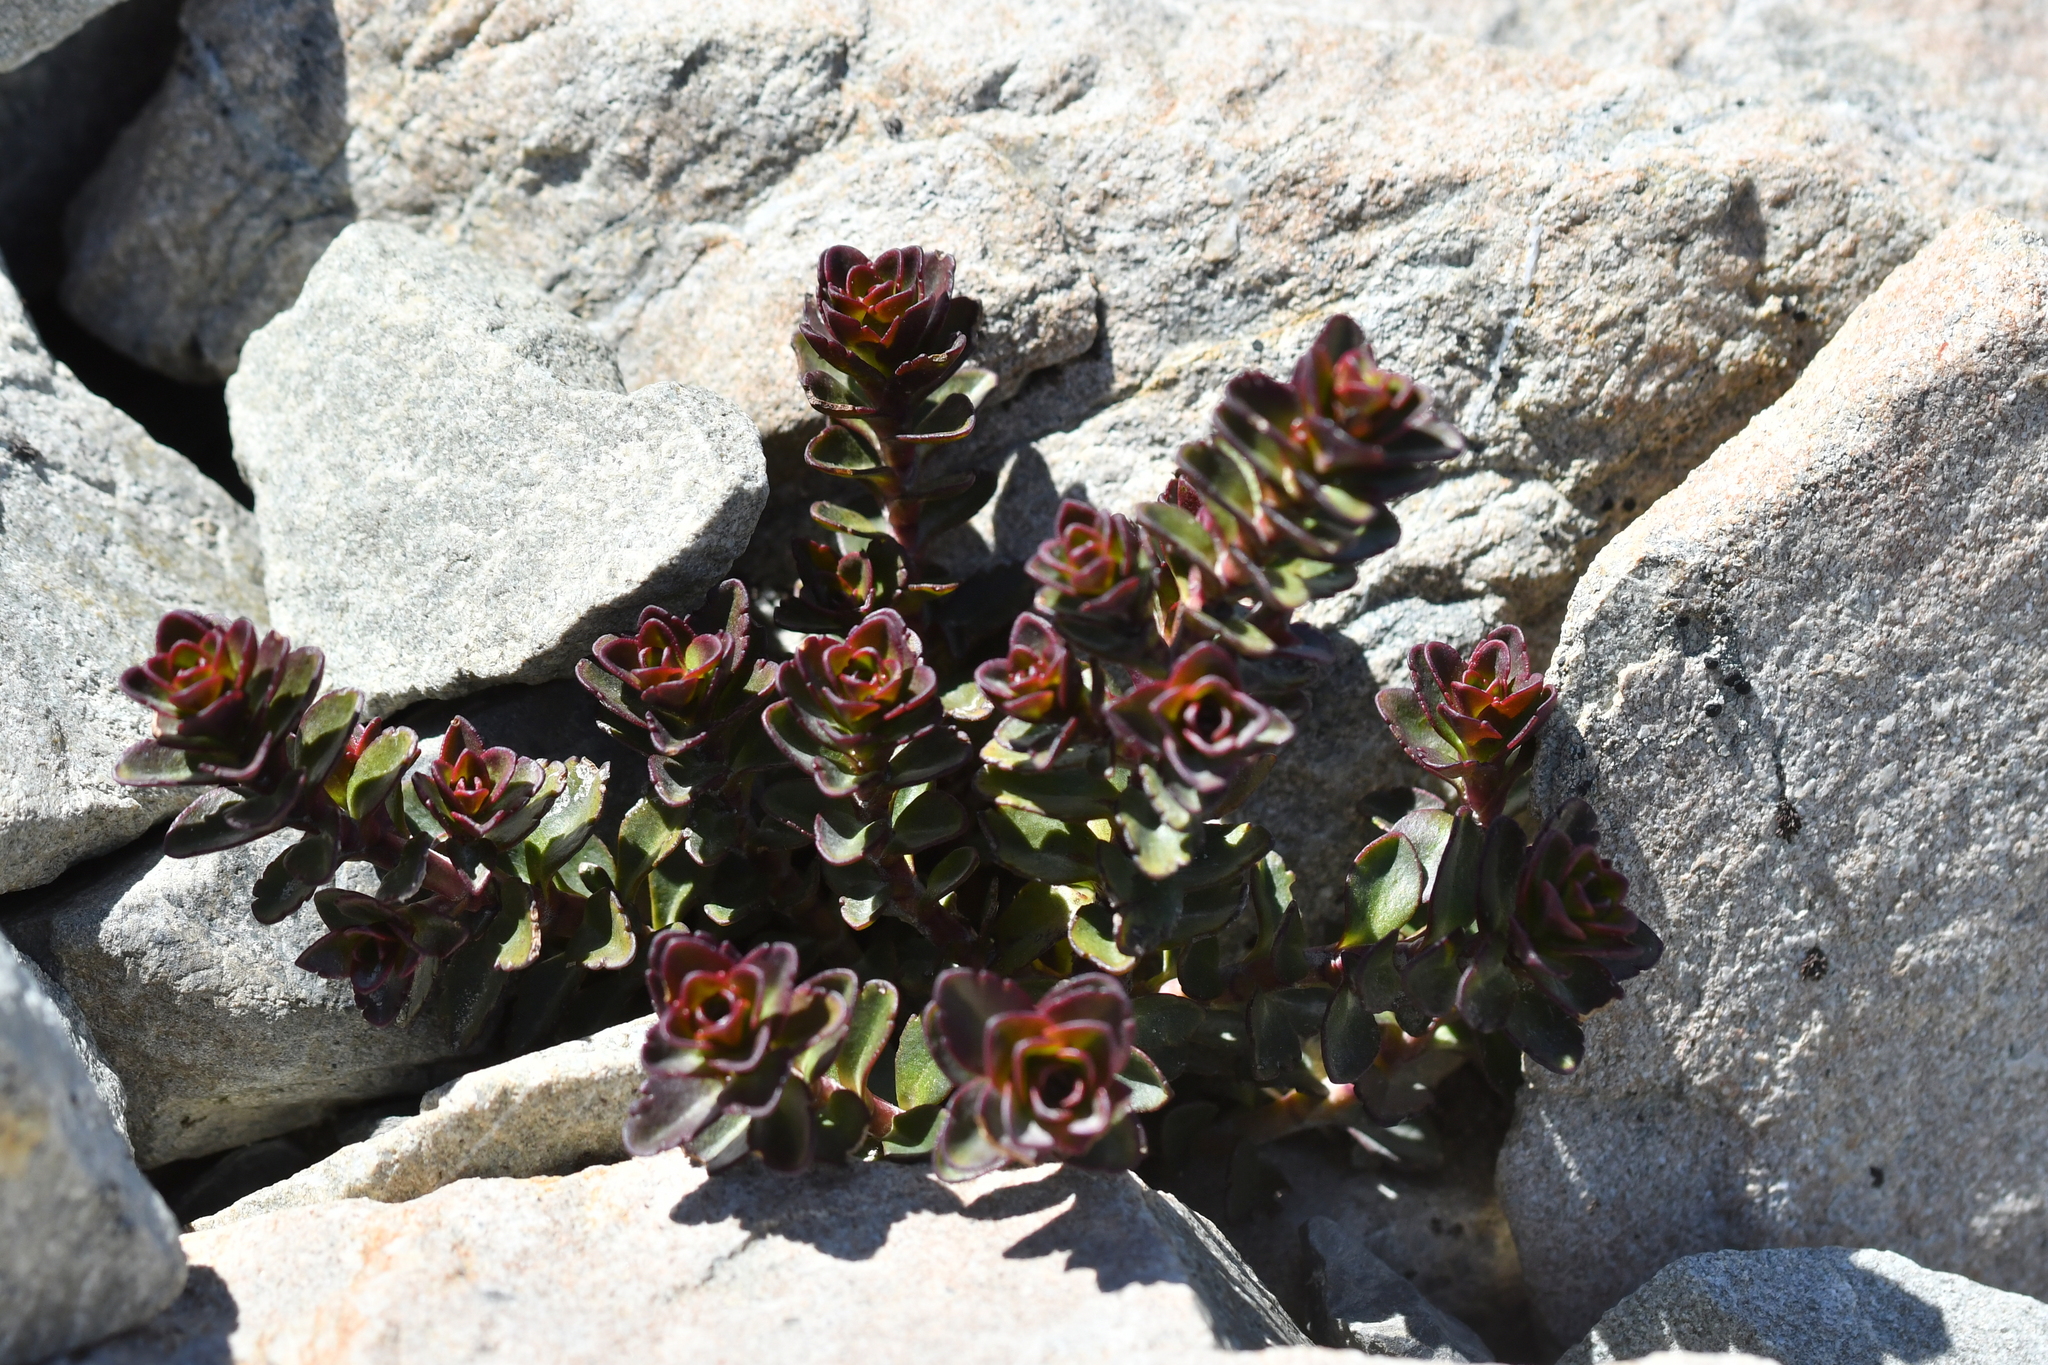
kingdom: Plantae
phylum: Tracheophyta
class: Magnoliopsida
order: Lamiales
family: Plantaginaceae
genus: Veronica
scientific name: Veronica haastii
